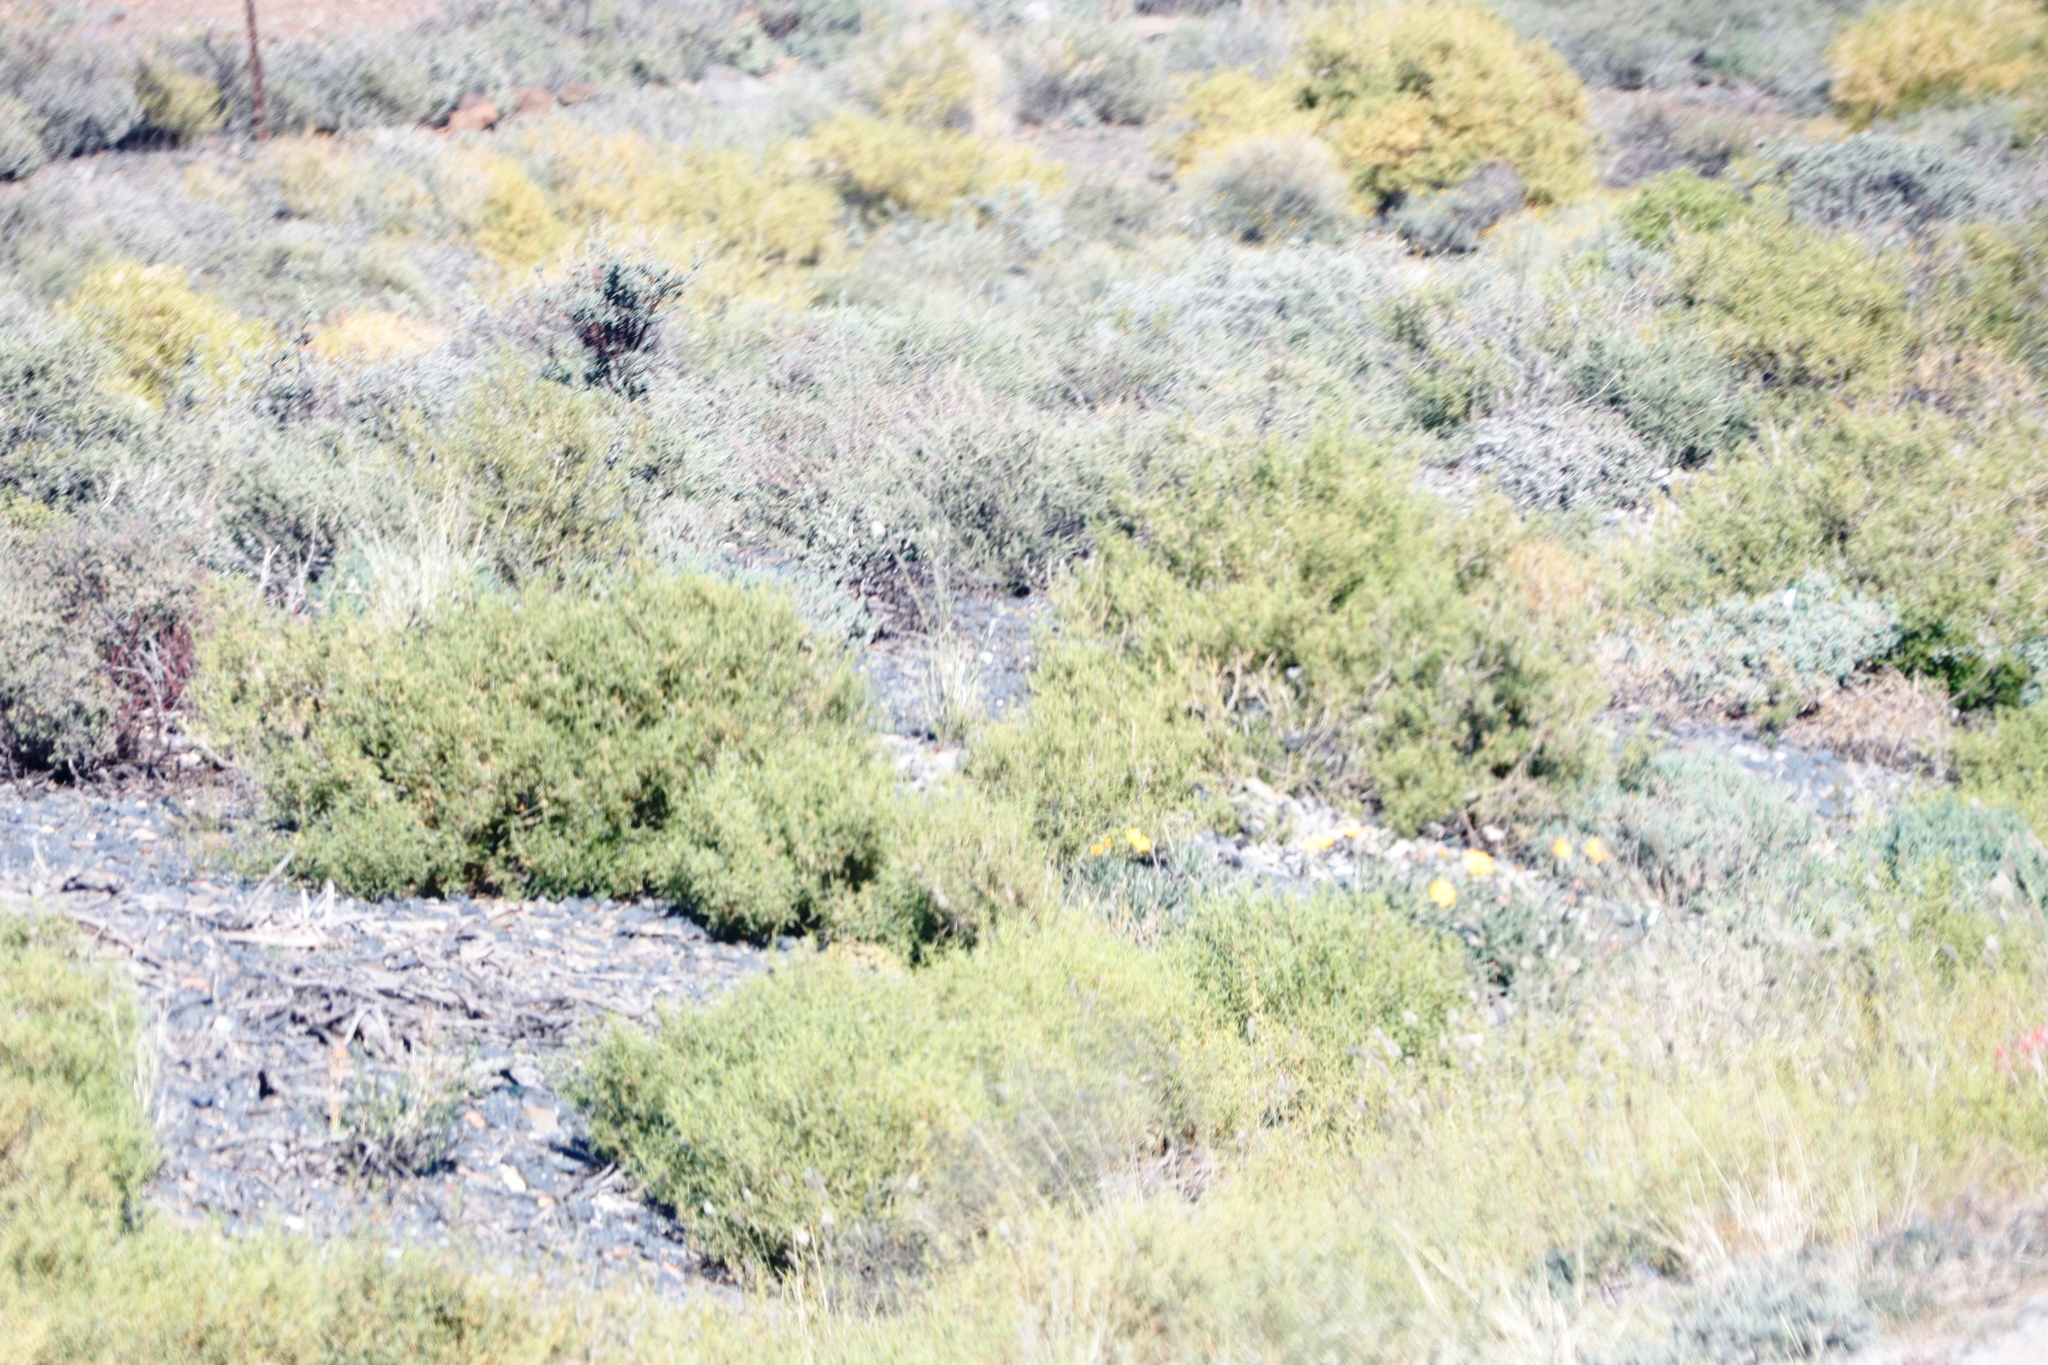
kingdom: Plantae
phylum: Tracheophyta
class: Magnoliopsida
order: Caryophyllales
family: Aizoaceae
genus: Aizoon
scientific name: Aizoon africanum
